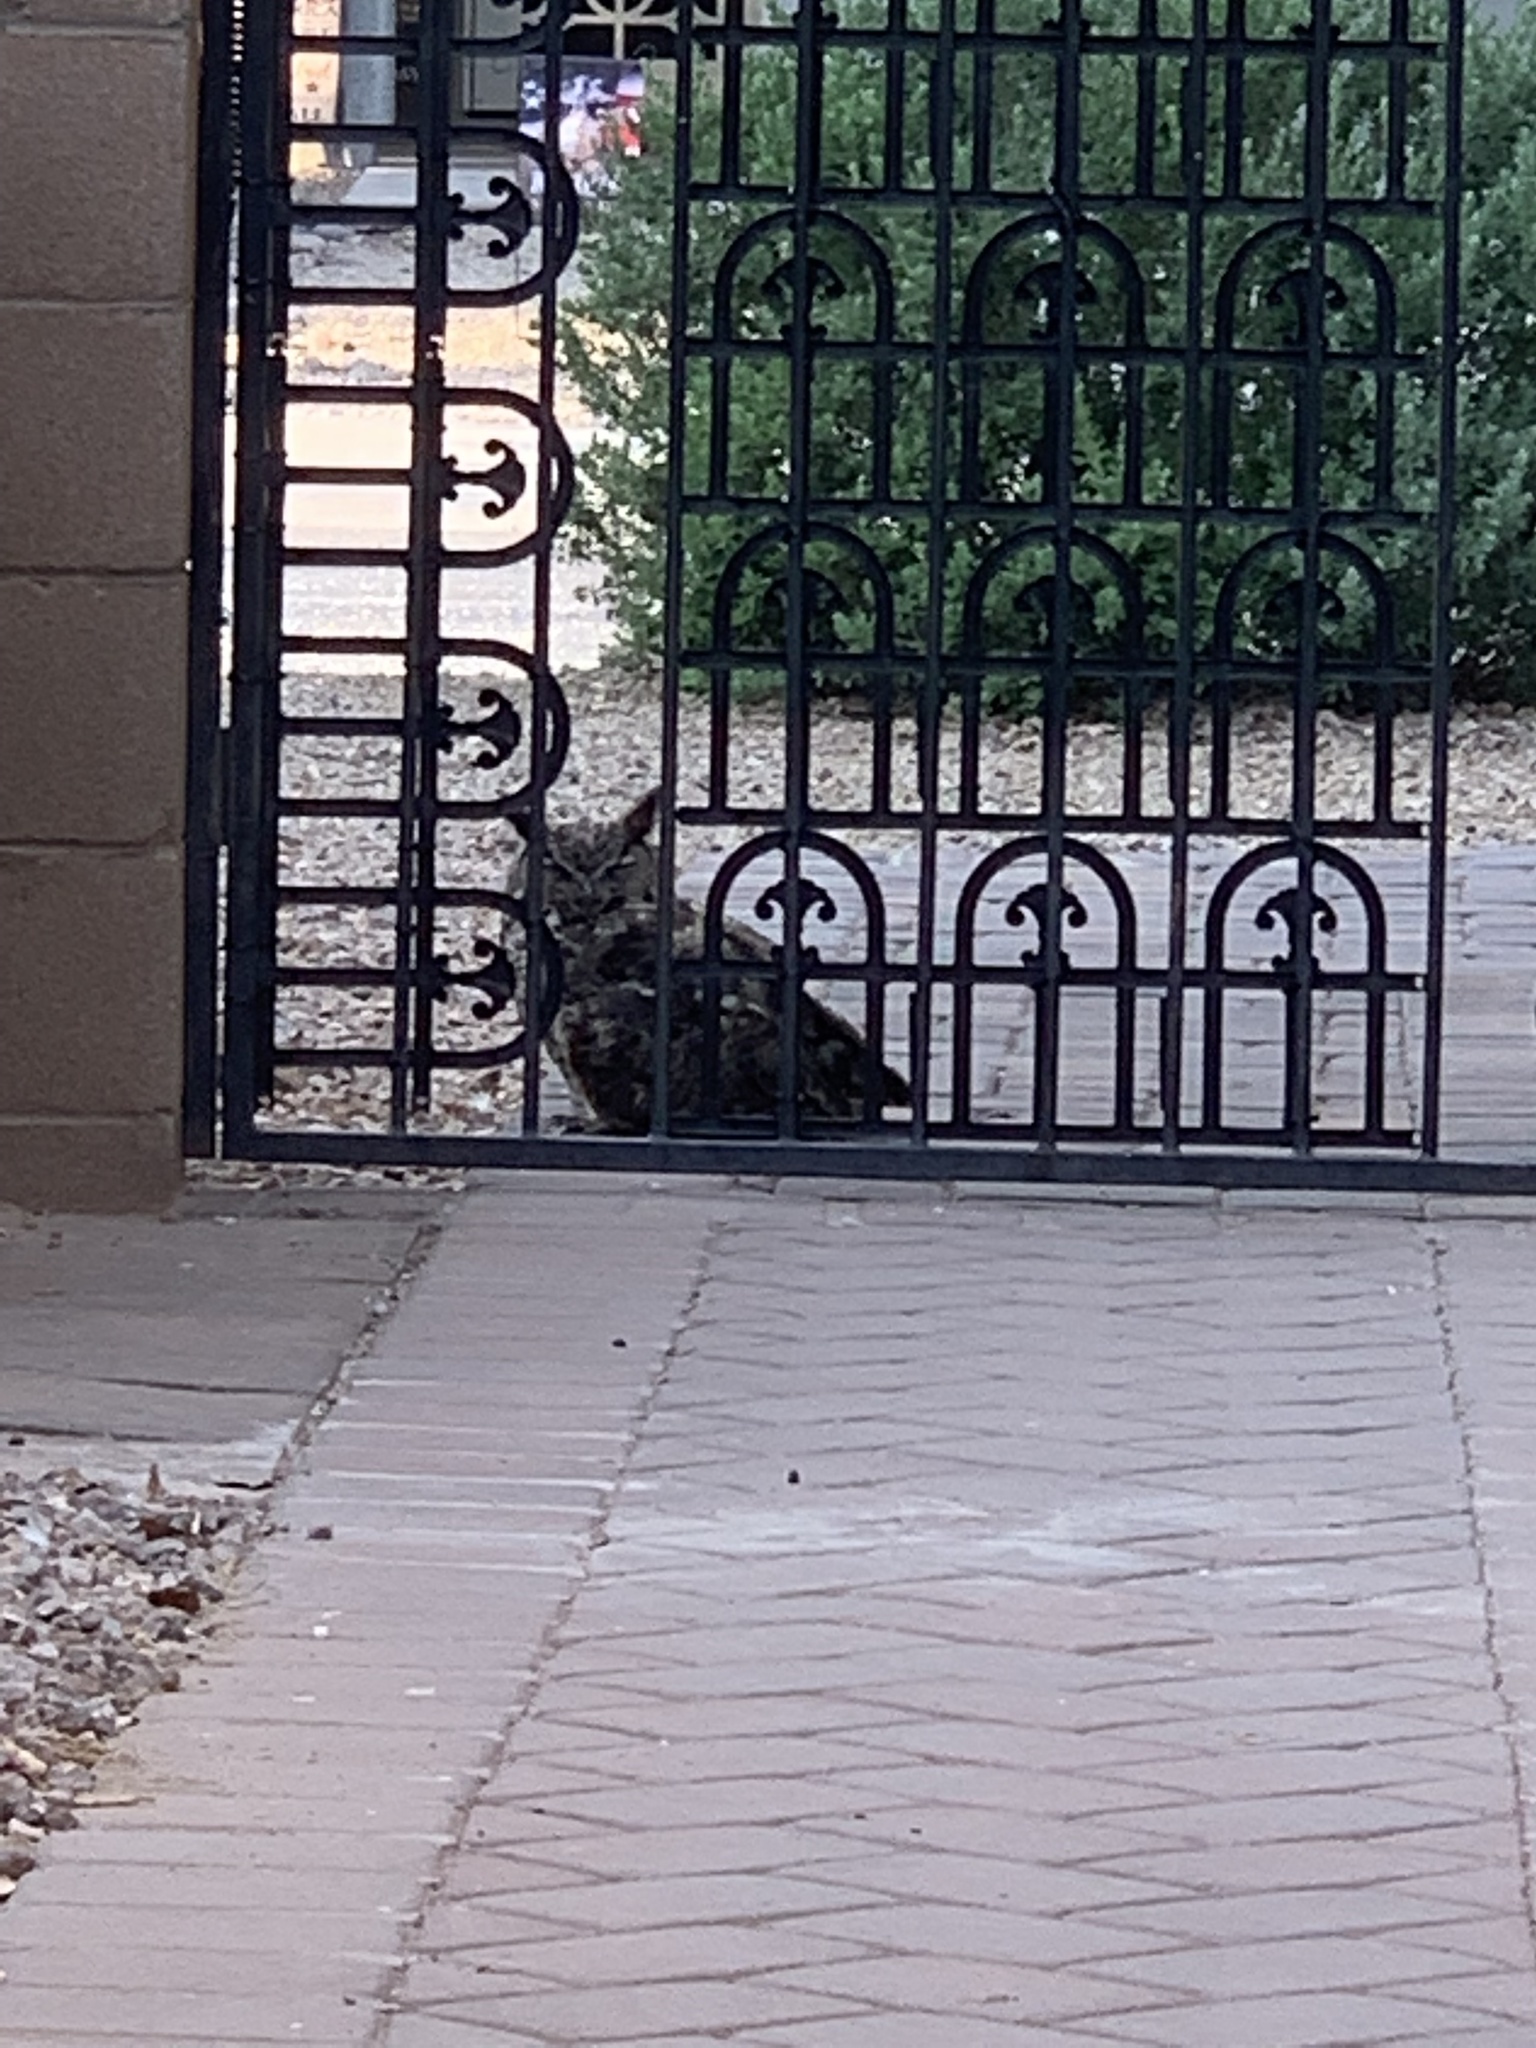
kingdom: Animalia
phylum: Chordata
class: Aves
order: Strigiformes
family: Strigidae
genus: Bubo
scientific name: Bubo virginianus
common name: Great horned owl
